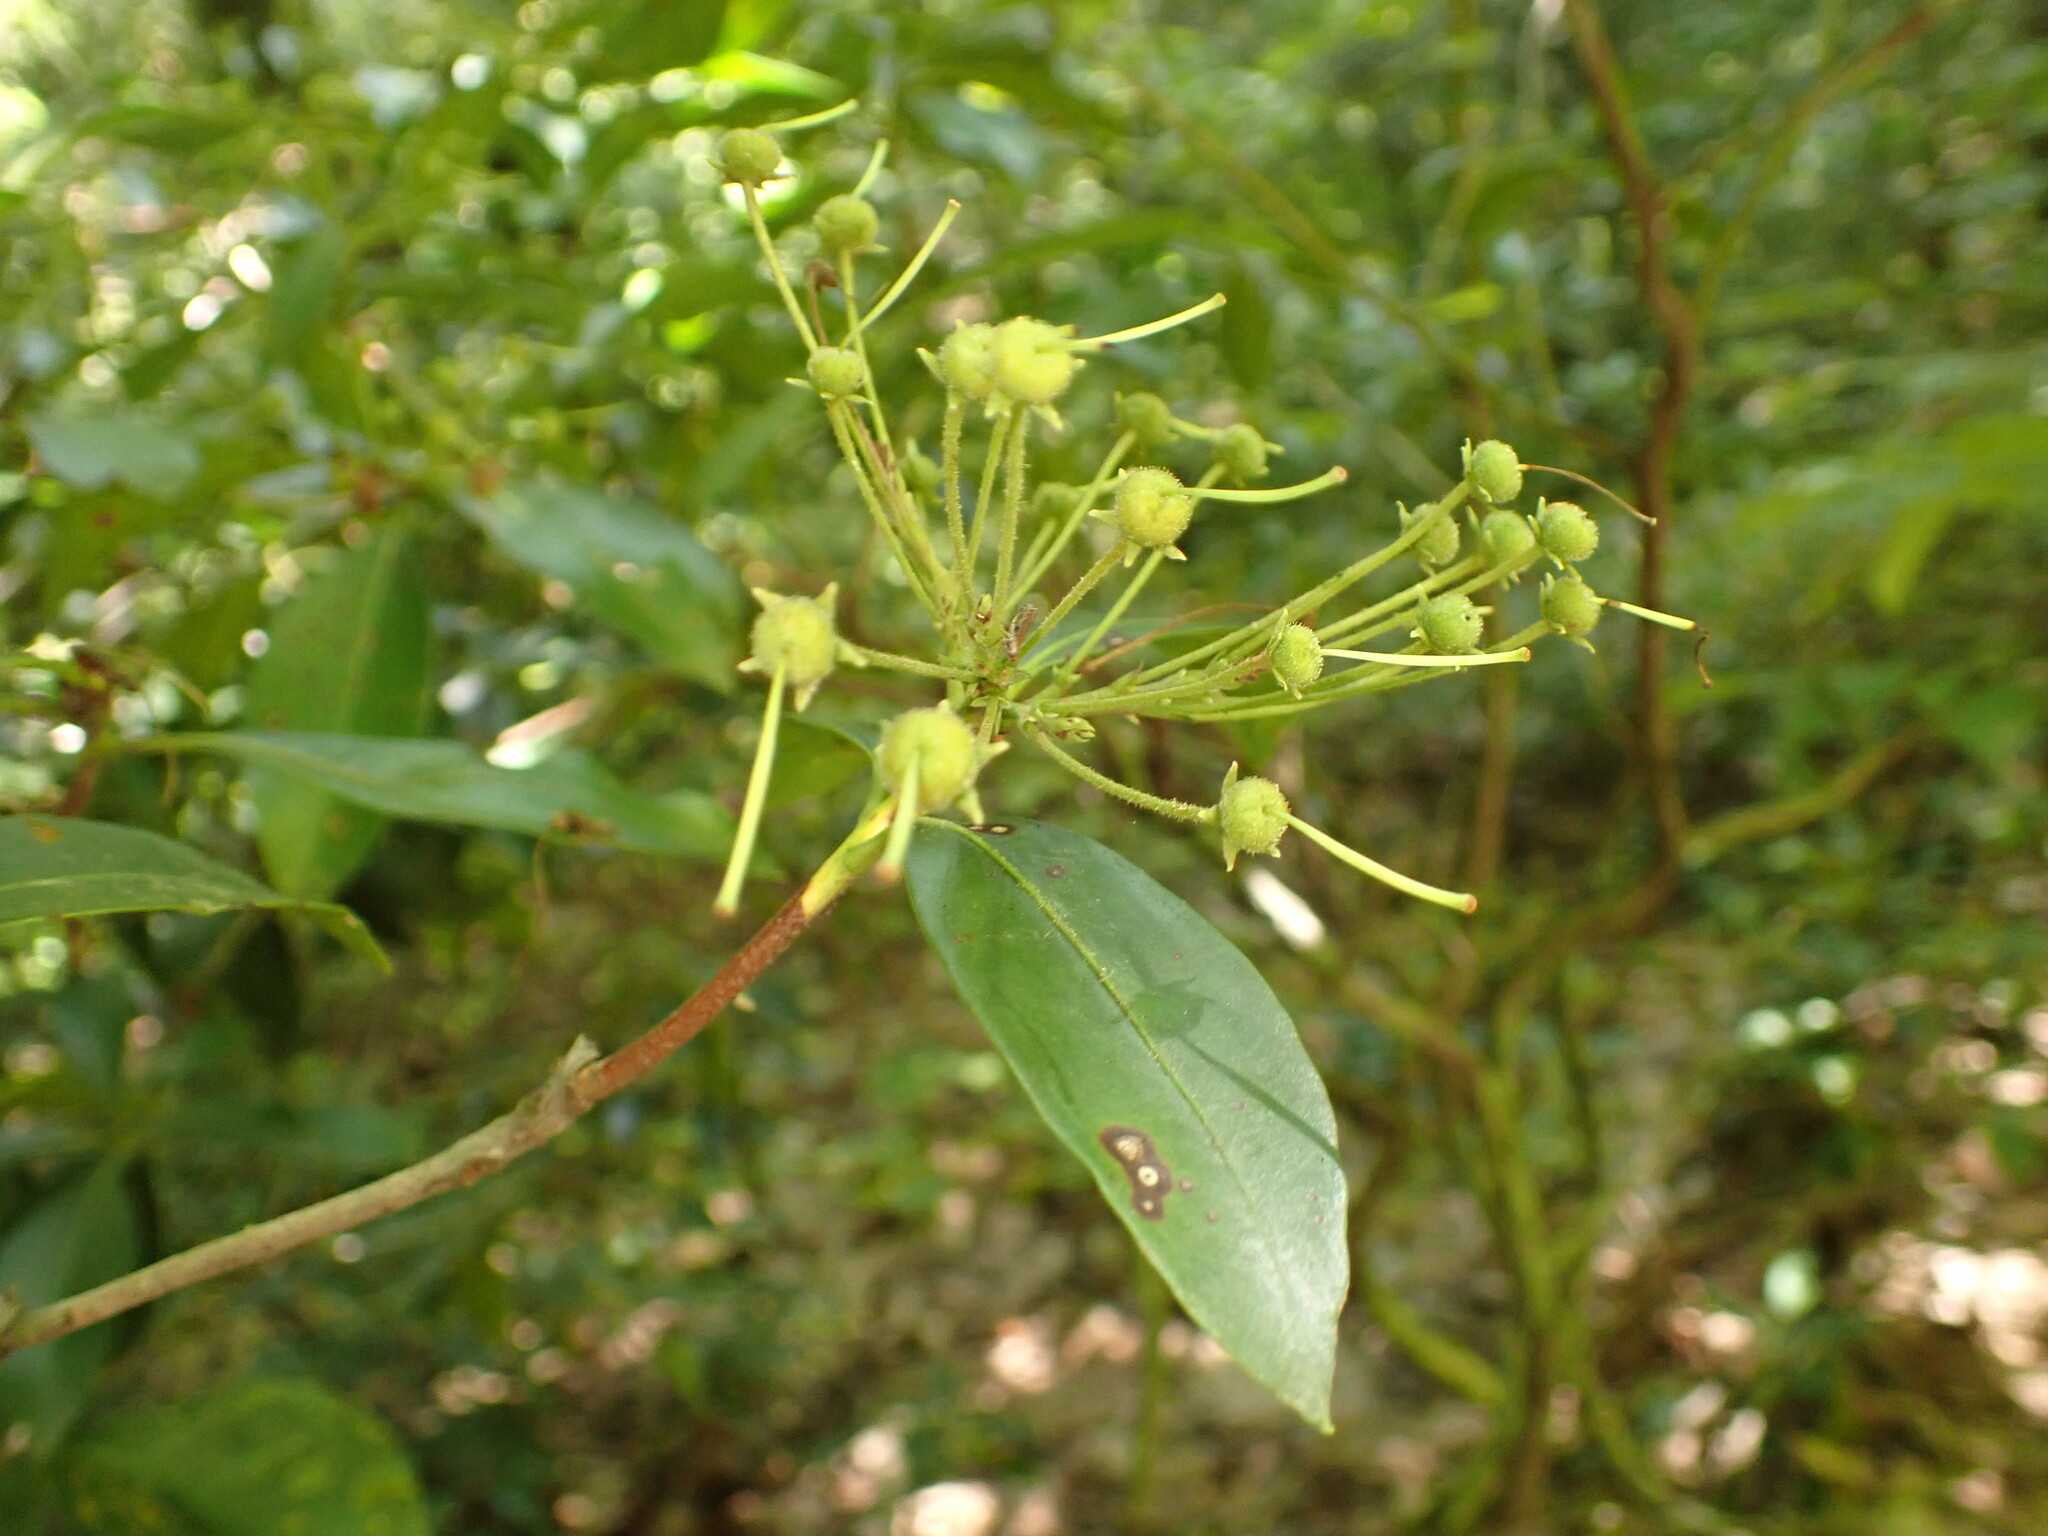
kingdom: Plantae
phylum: Tracheophyta
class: Magnoliopsida
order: Ericales
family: Ericaceae
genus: Kalmia
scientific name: Kalmia latifolia
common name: Mountain-laurel
